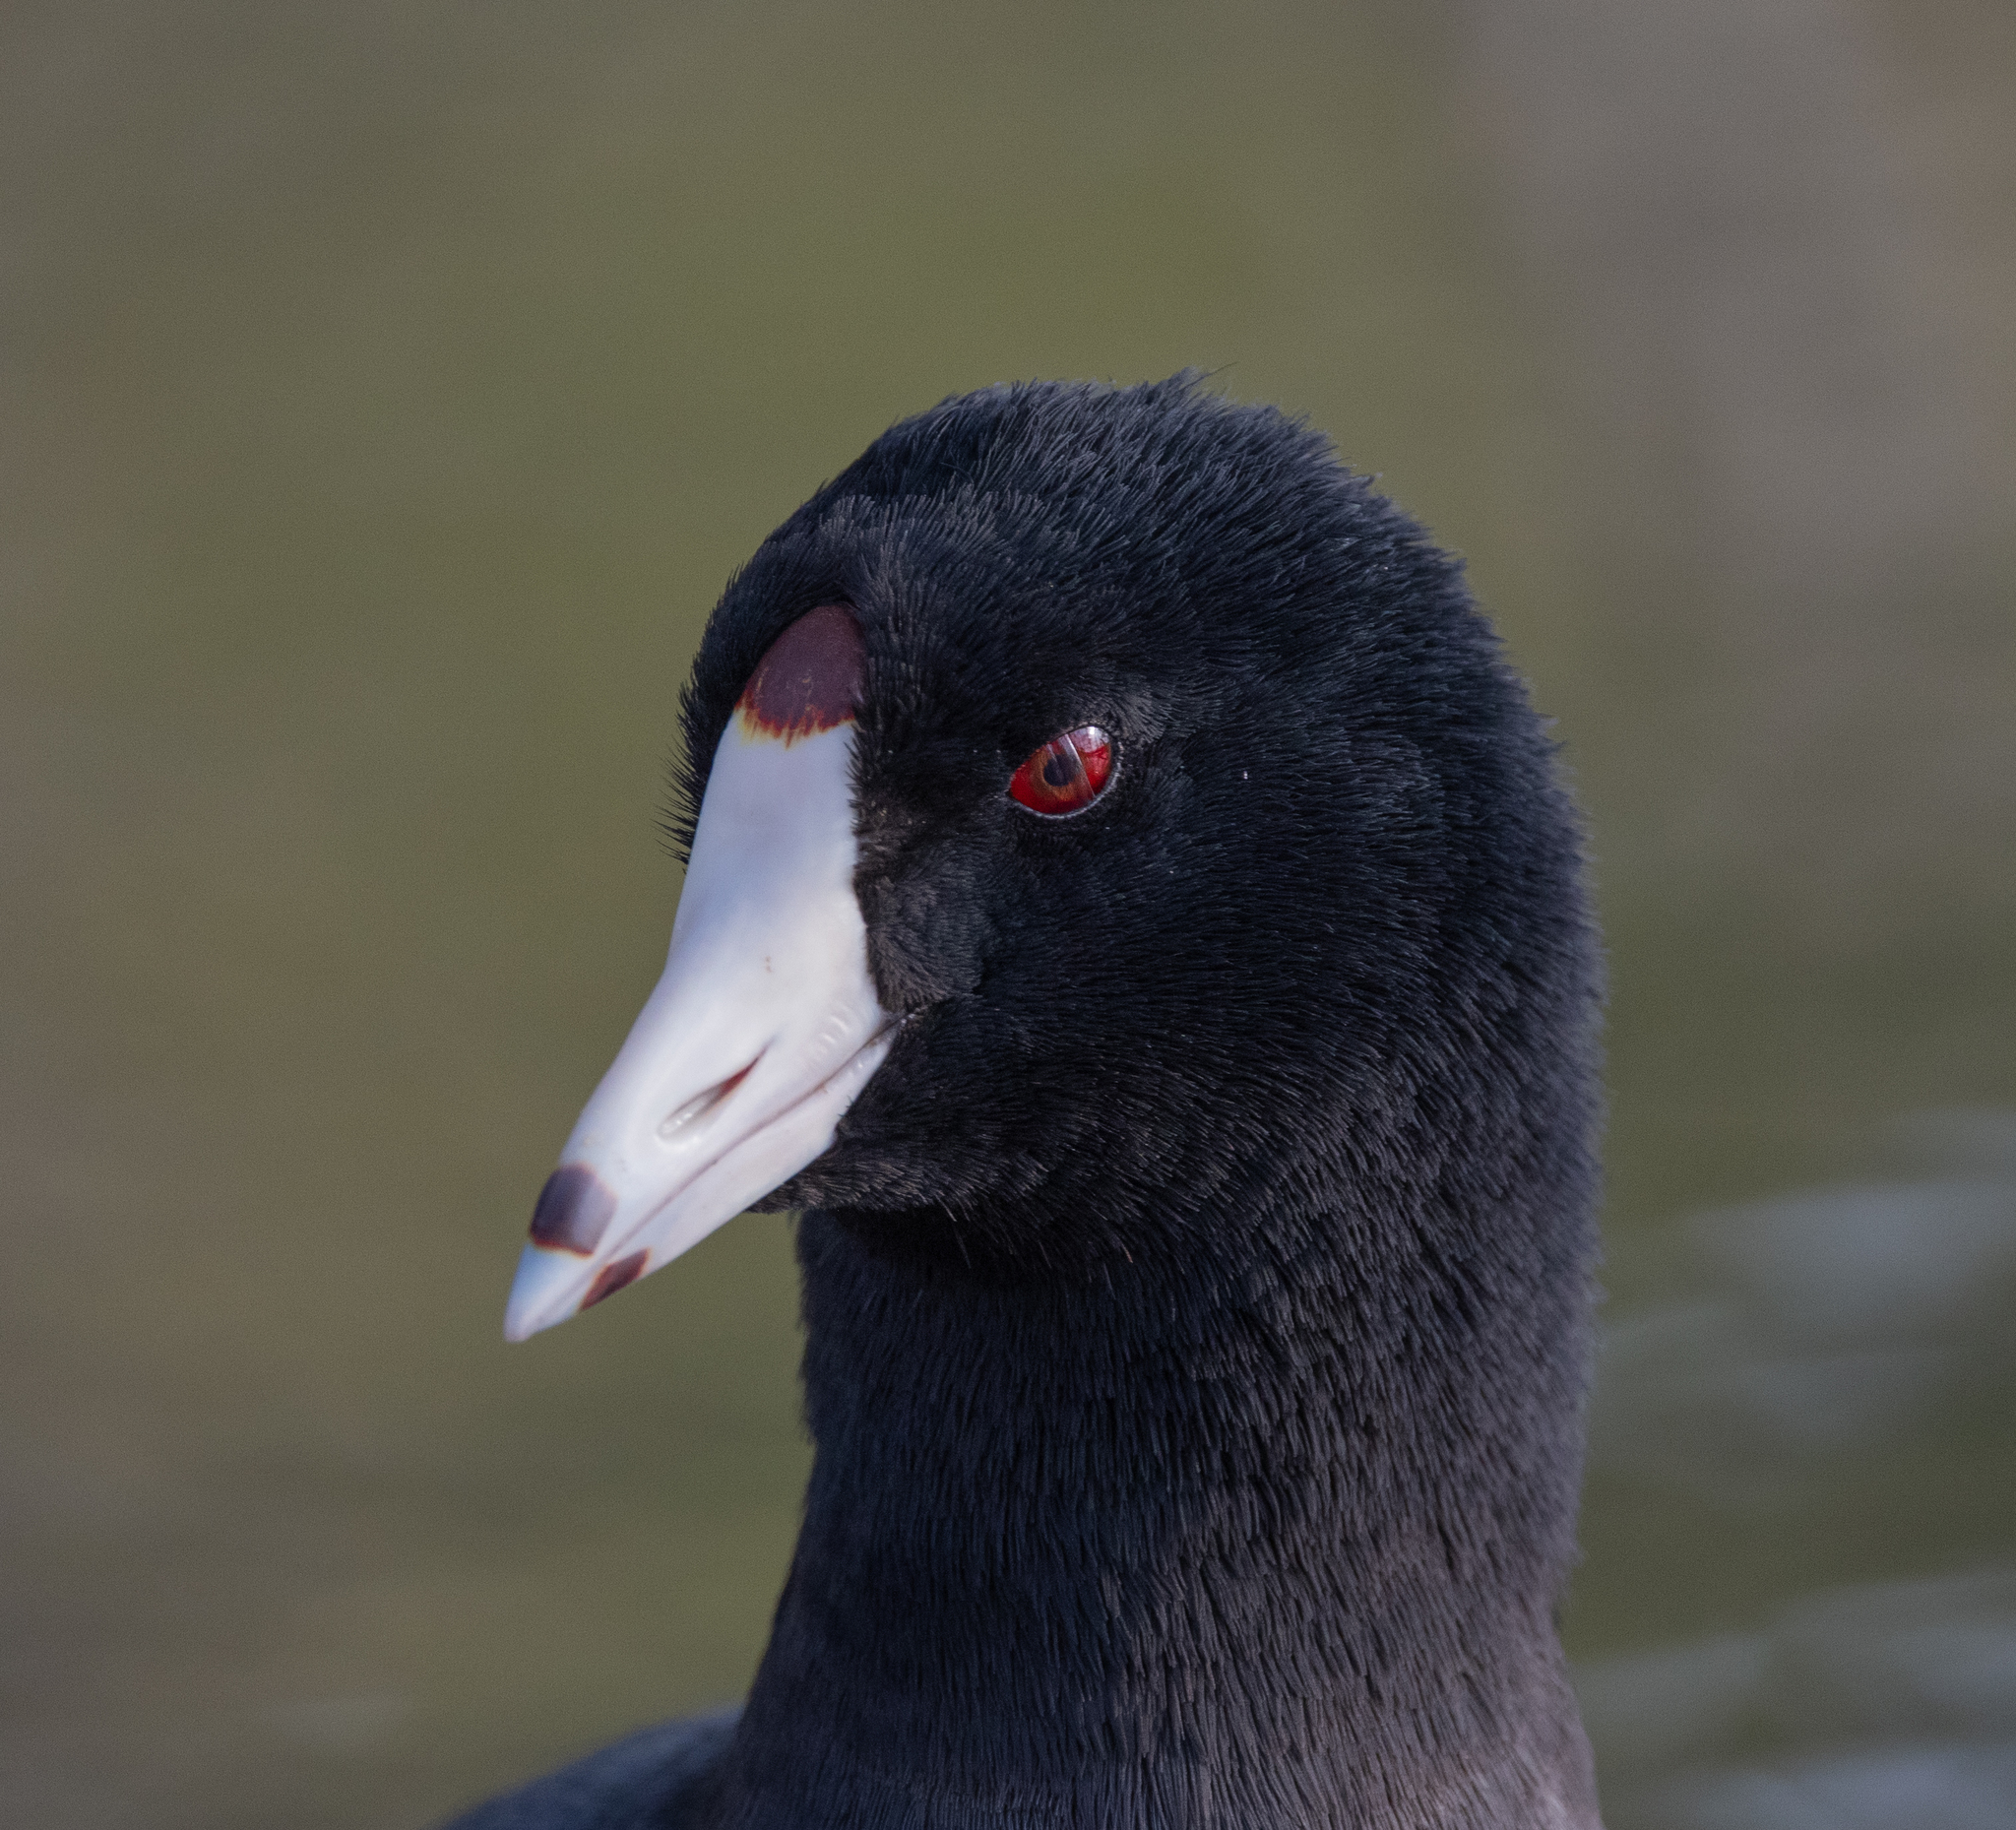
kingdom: Animalia
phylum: Chordata
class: Aves
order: Gruiformes
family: Rallidae
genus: Fulica
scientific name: Fulica americana
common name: American coot
